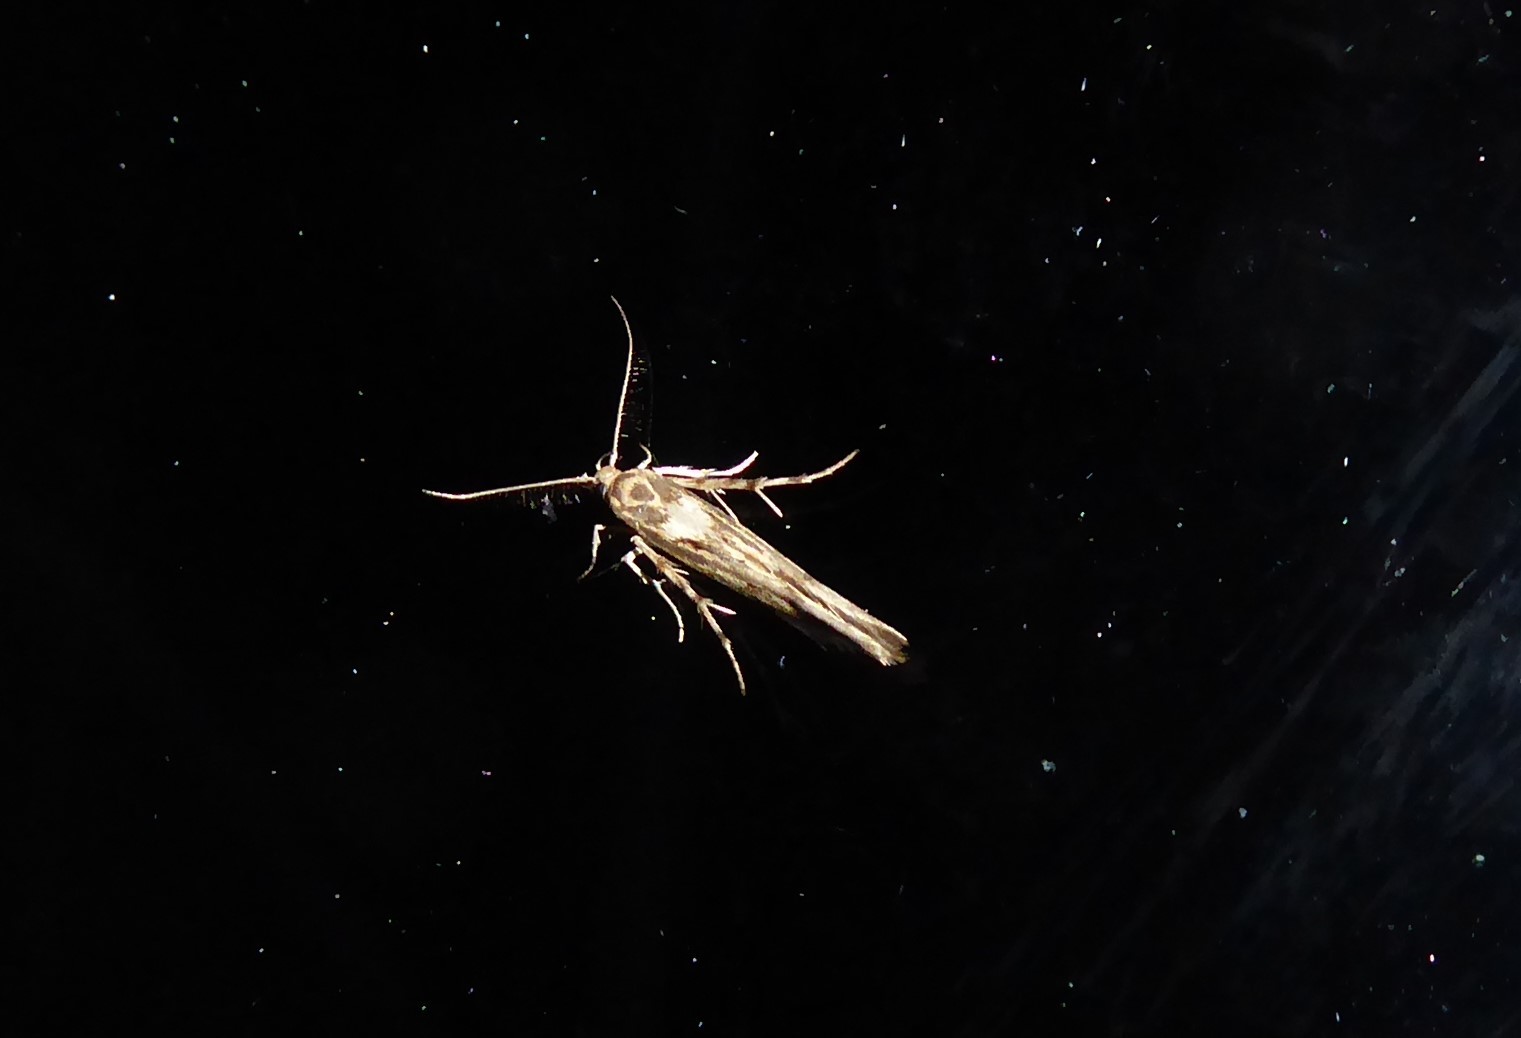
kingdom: Animalia
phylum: Arthropoda
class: Insecta
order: Lepidoptera
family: Stathmopodidae
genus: Stathmopoda
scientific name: Stathmopoda plumbiflua
